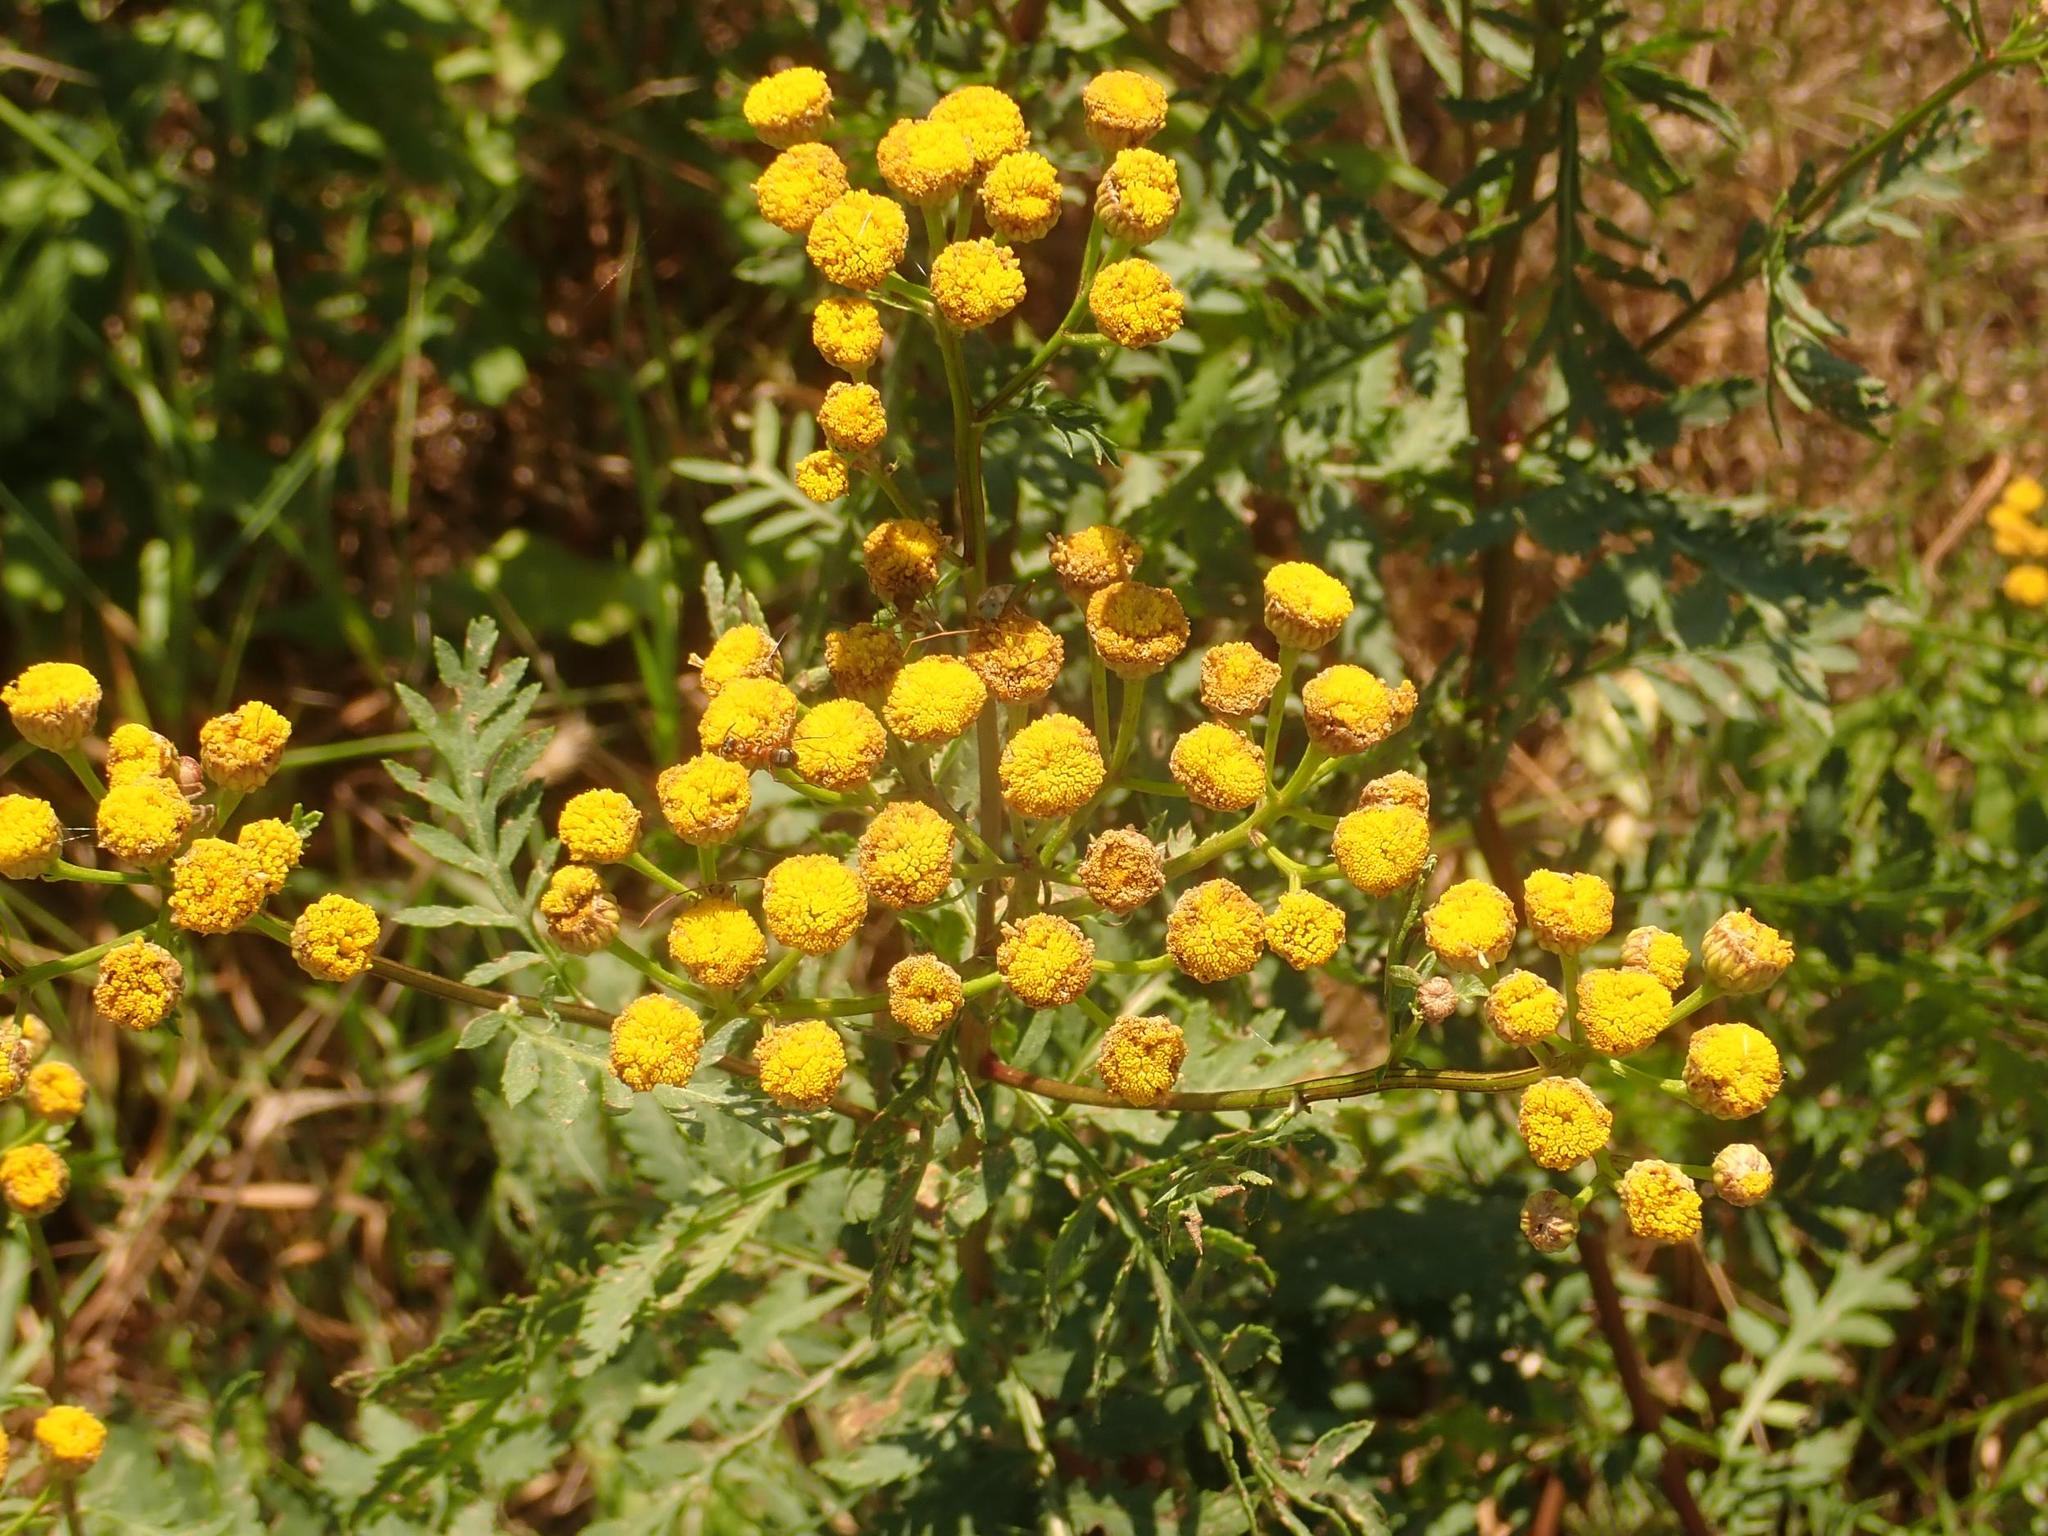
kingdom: Plantae
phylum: Tracheophyta
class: Magnoliopsida
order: Asterales
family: Asteraceae
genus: Tanacetum
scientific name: Tanacetum vulgare
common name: Common tansy
